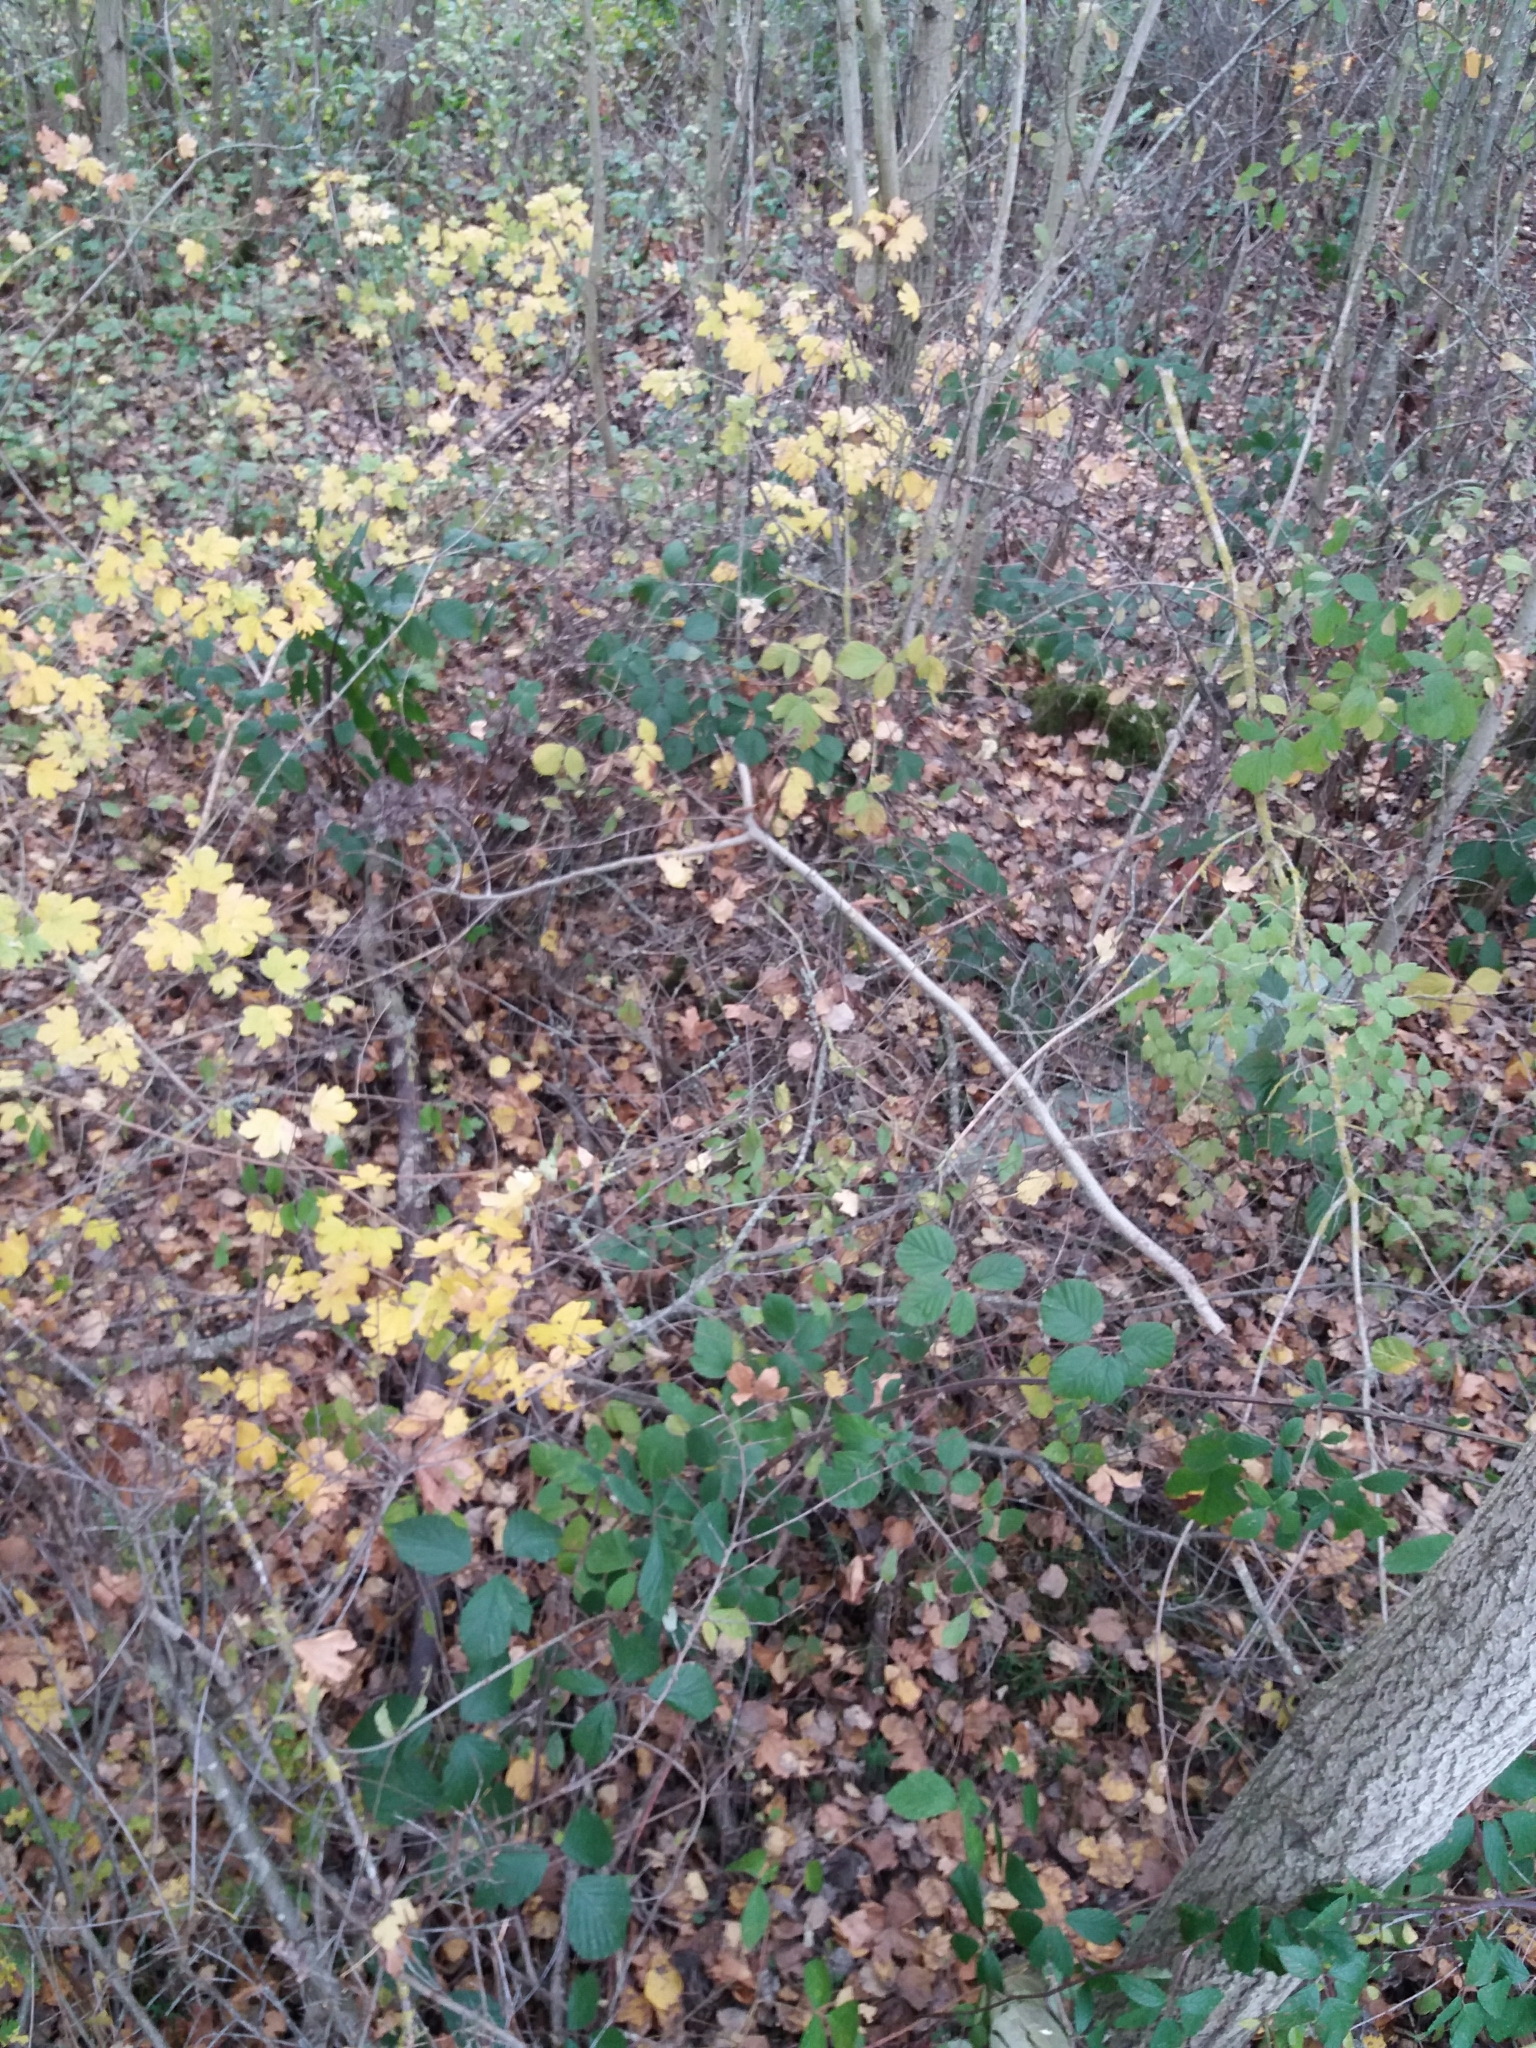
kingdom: Plantae
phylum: Tracheophyta
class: Magnoliopsida
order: Rosales
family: Rosaceae
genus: Rubus
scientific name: Rubus vestitus
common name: European blackberry
